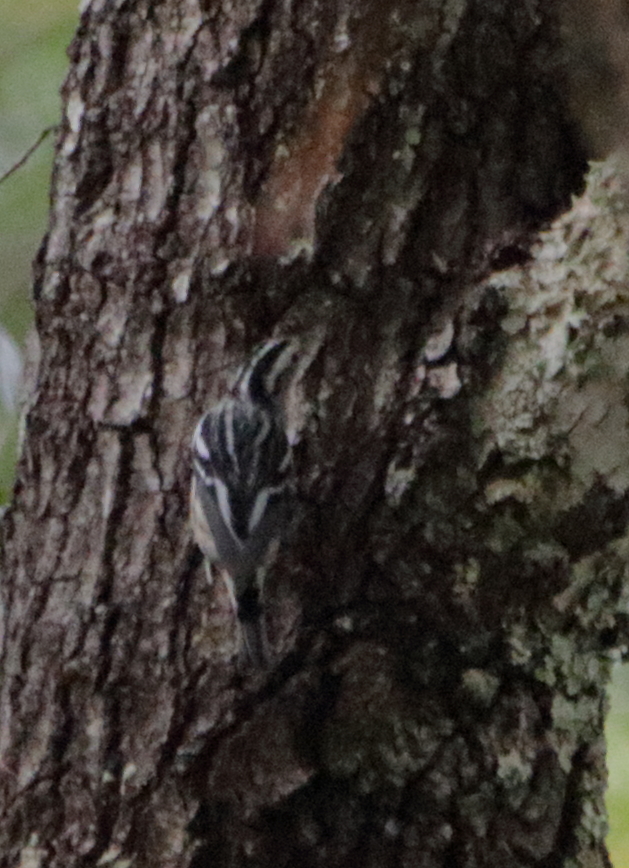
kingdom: Animalia
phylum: Chordata
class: Aves
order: Passeriformes
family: Parulidae
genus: Mniotilta
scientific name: Mniotilta varia
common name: Black-and-white warbler
